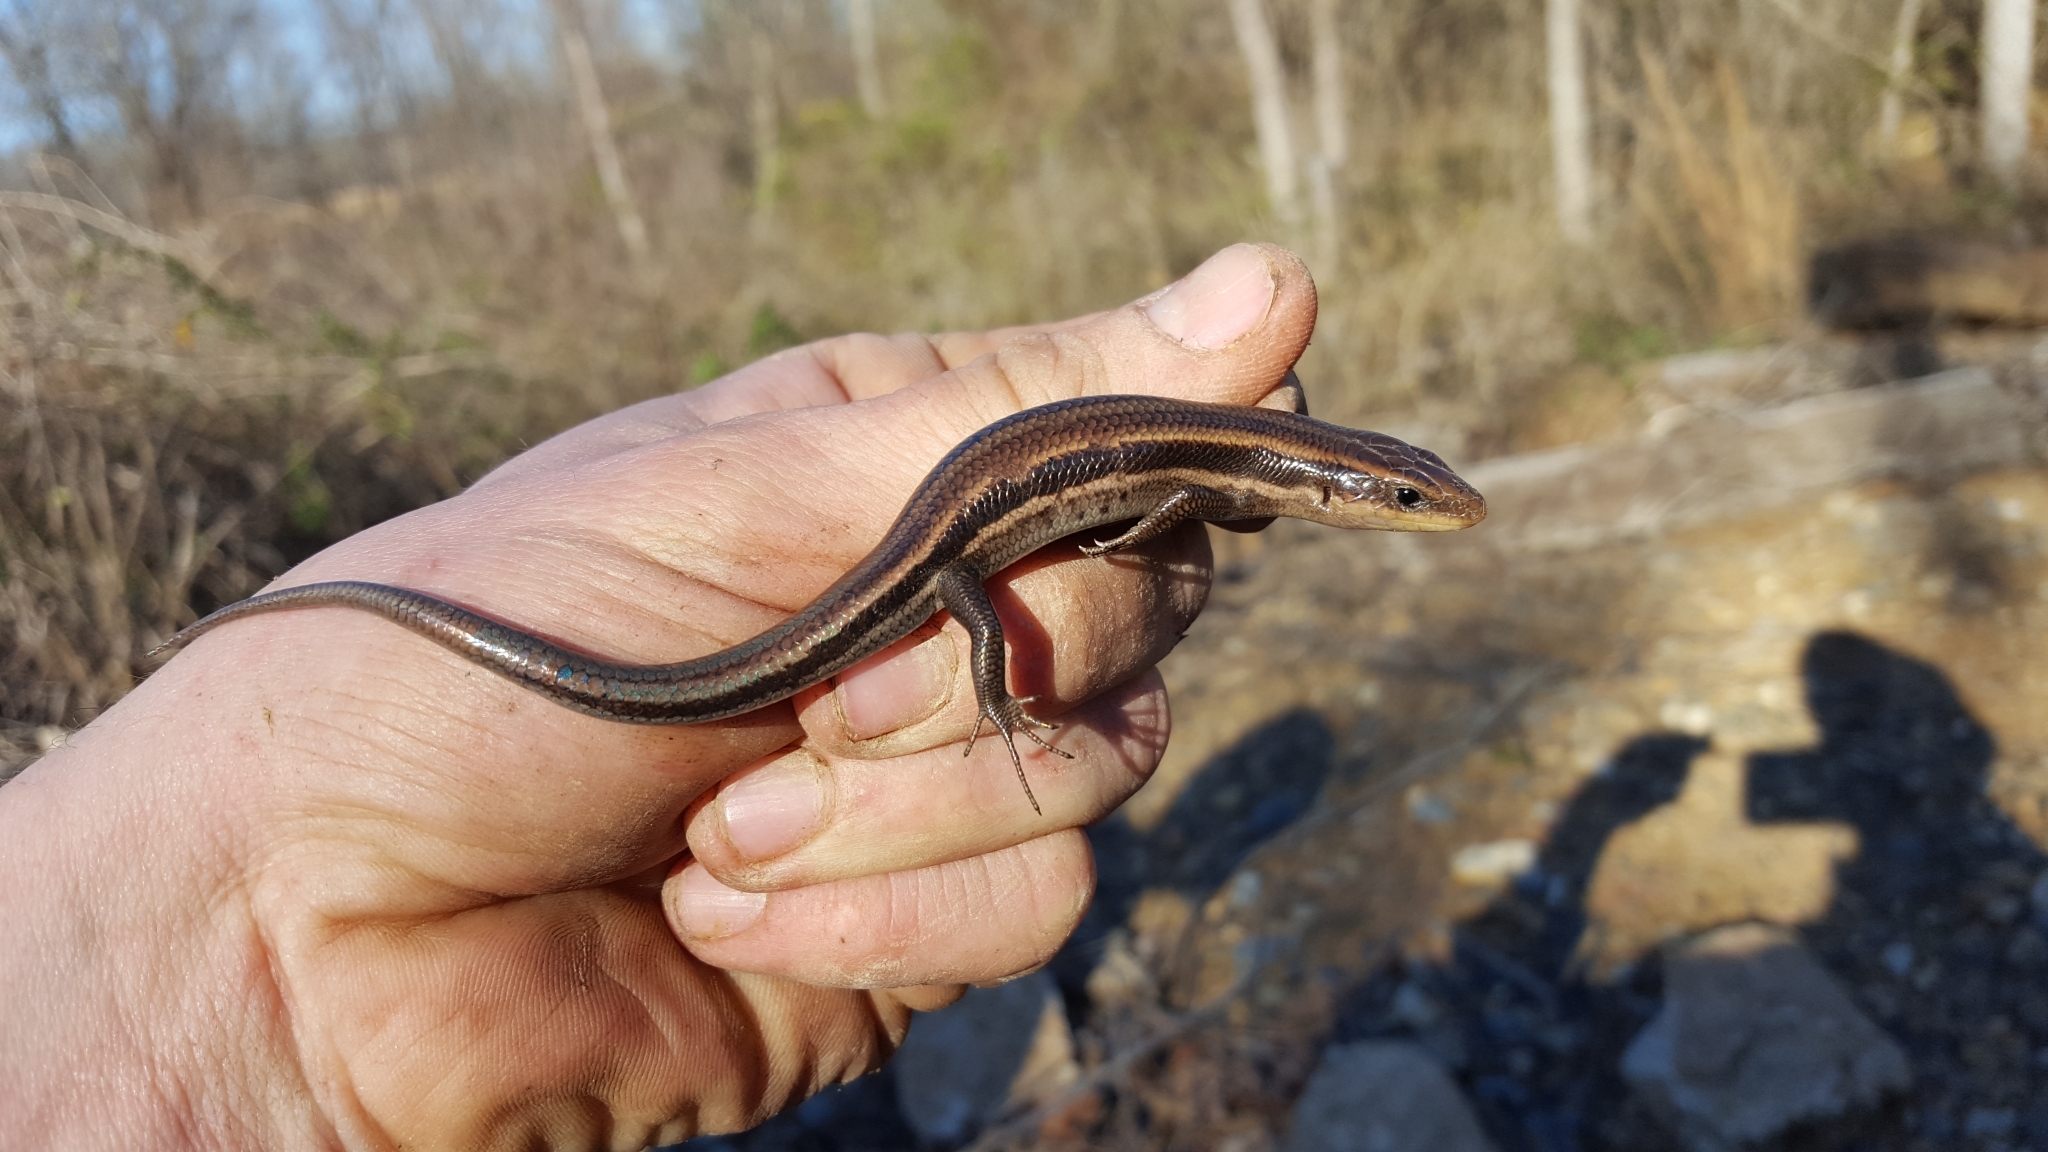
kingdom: Animalia
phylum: Chordata
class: Squamata
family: Scincidae
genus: Plestiodon
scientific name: Plestiodon fasciatus
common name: Five-lined skink
